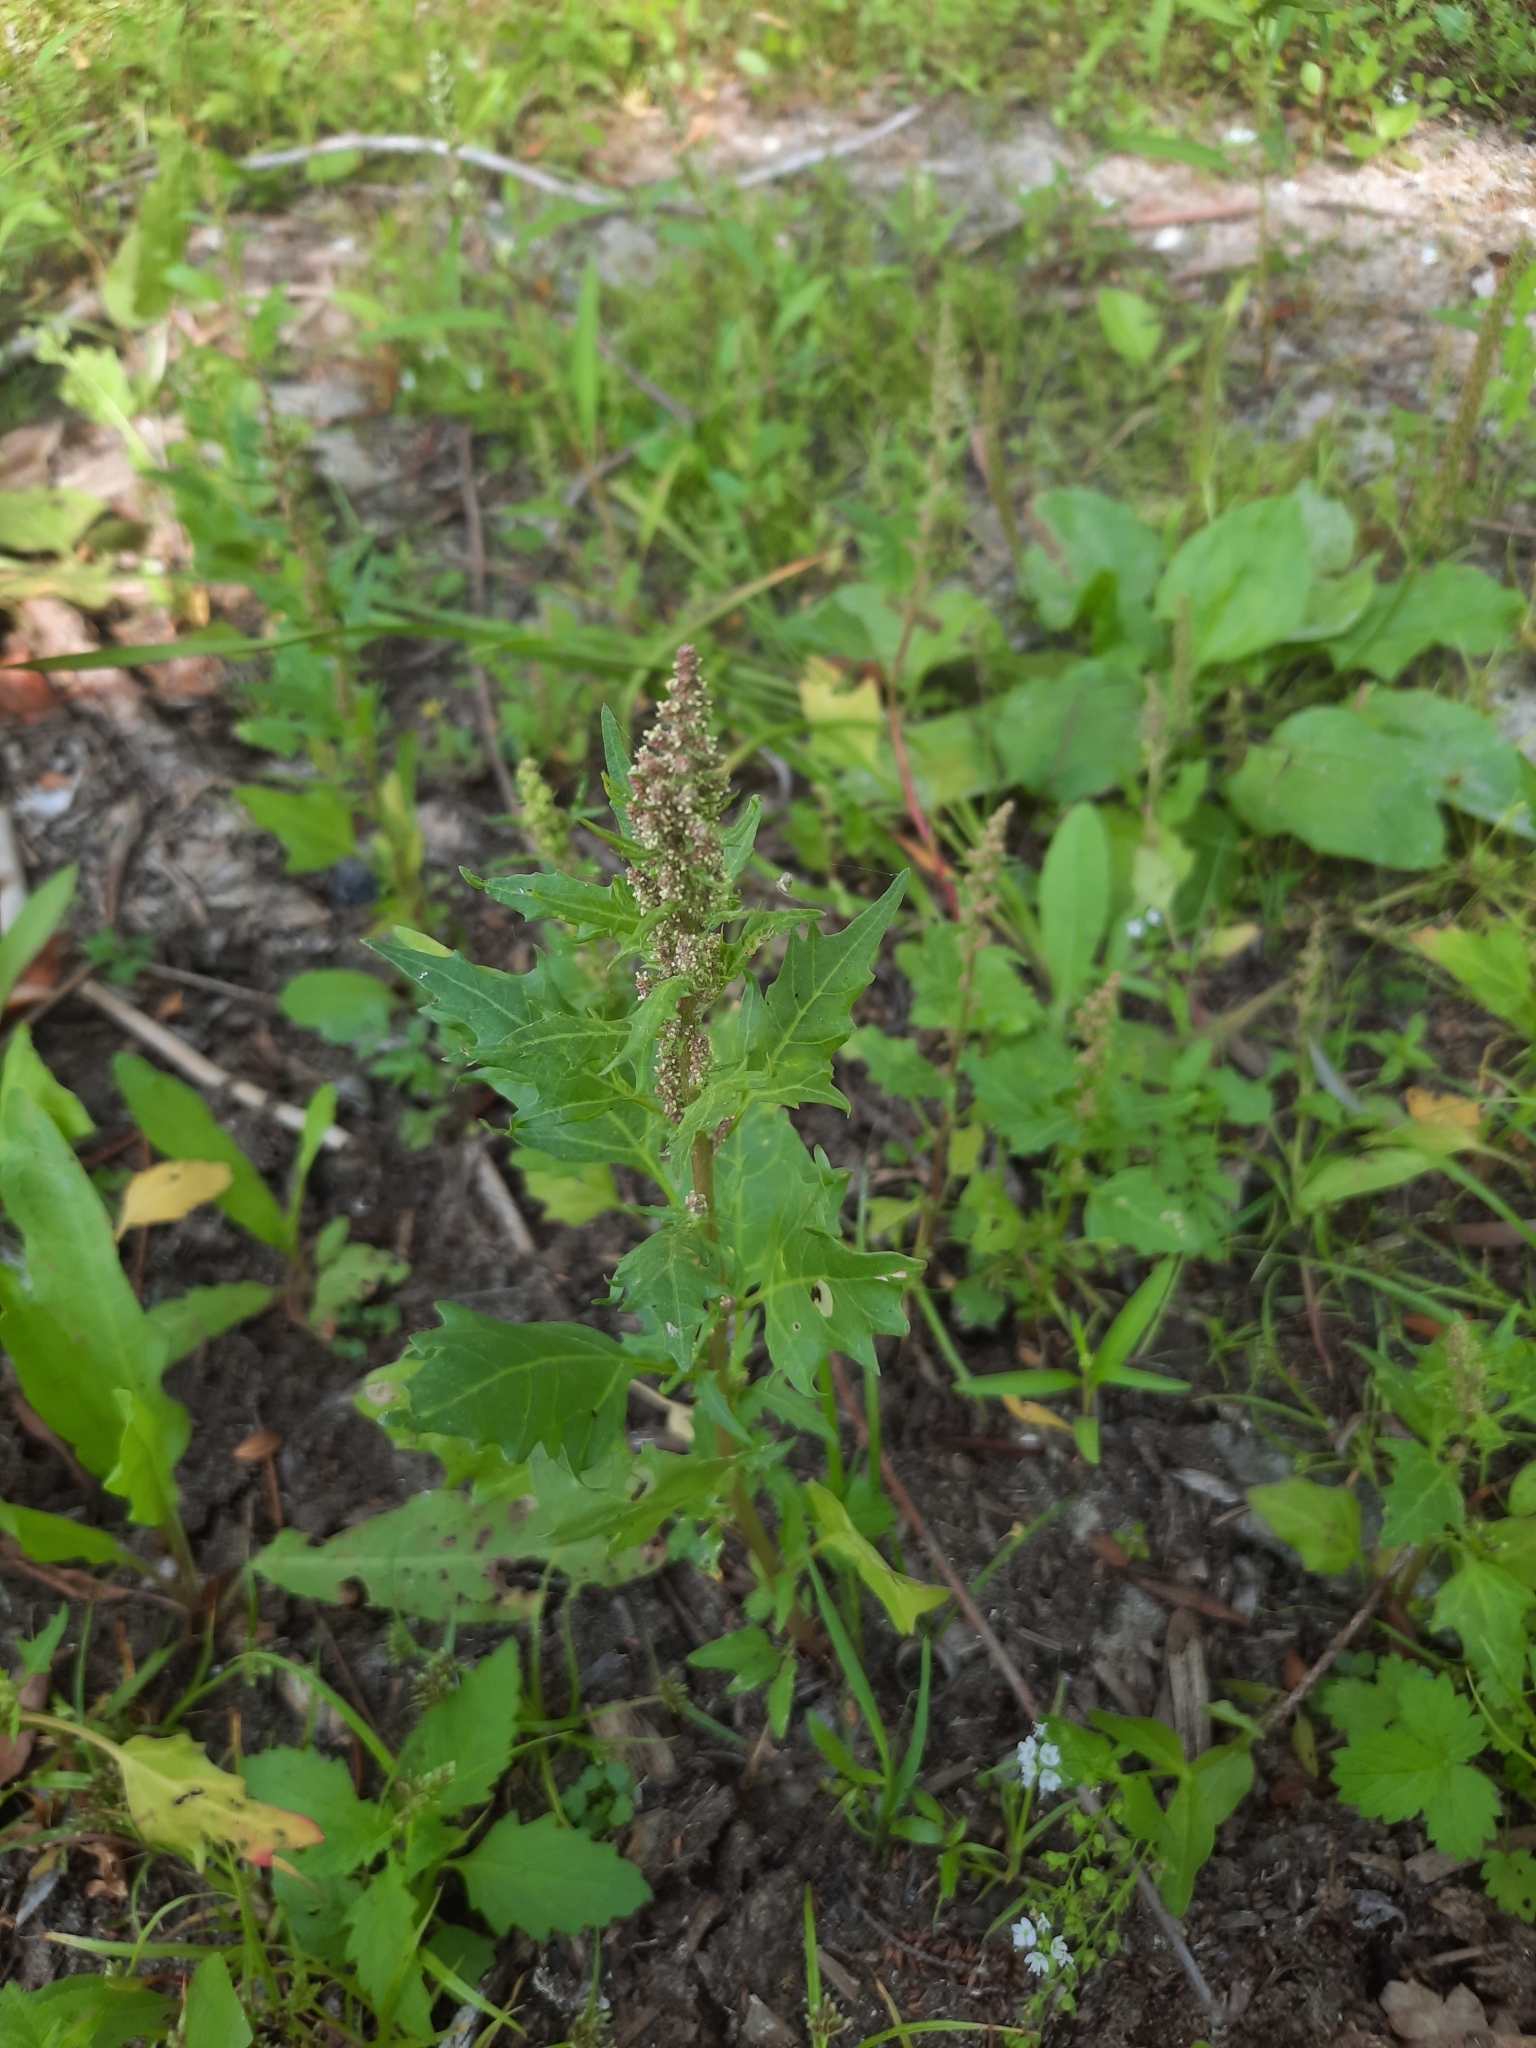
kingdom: Plantae
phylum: Tracheophyta
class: Magnoliopsida
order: Caryophyllales
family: Amaranthaceae
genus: Oxybasis
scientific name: Oxybasis rubra
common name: Red goosefoot
